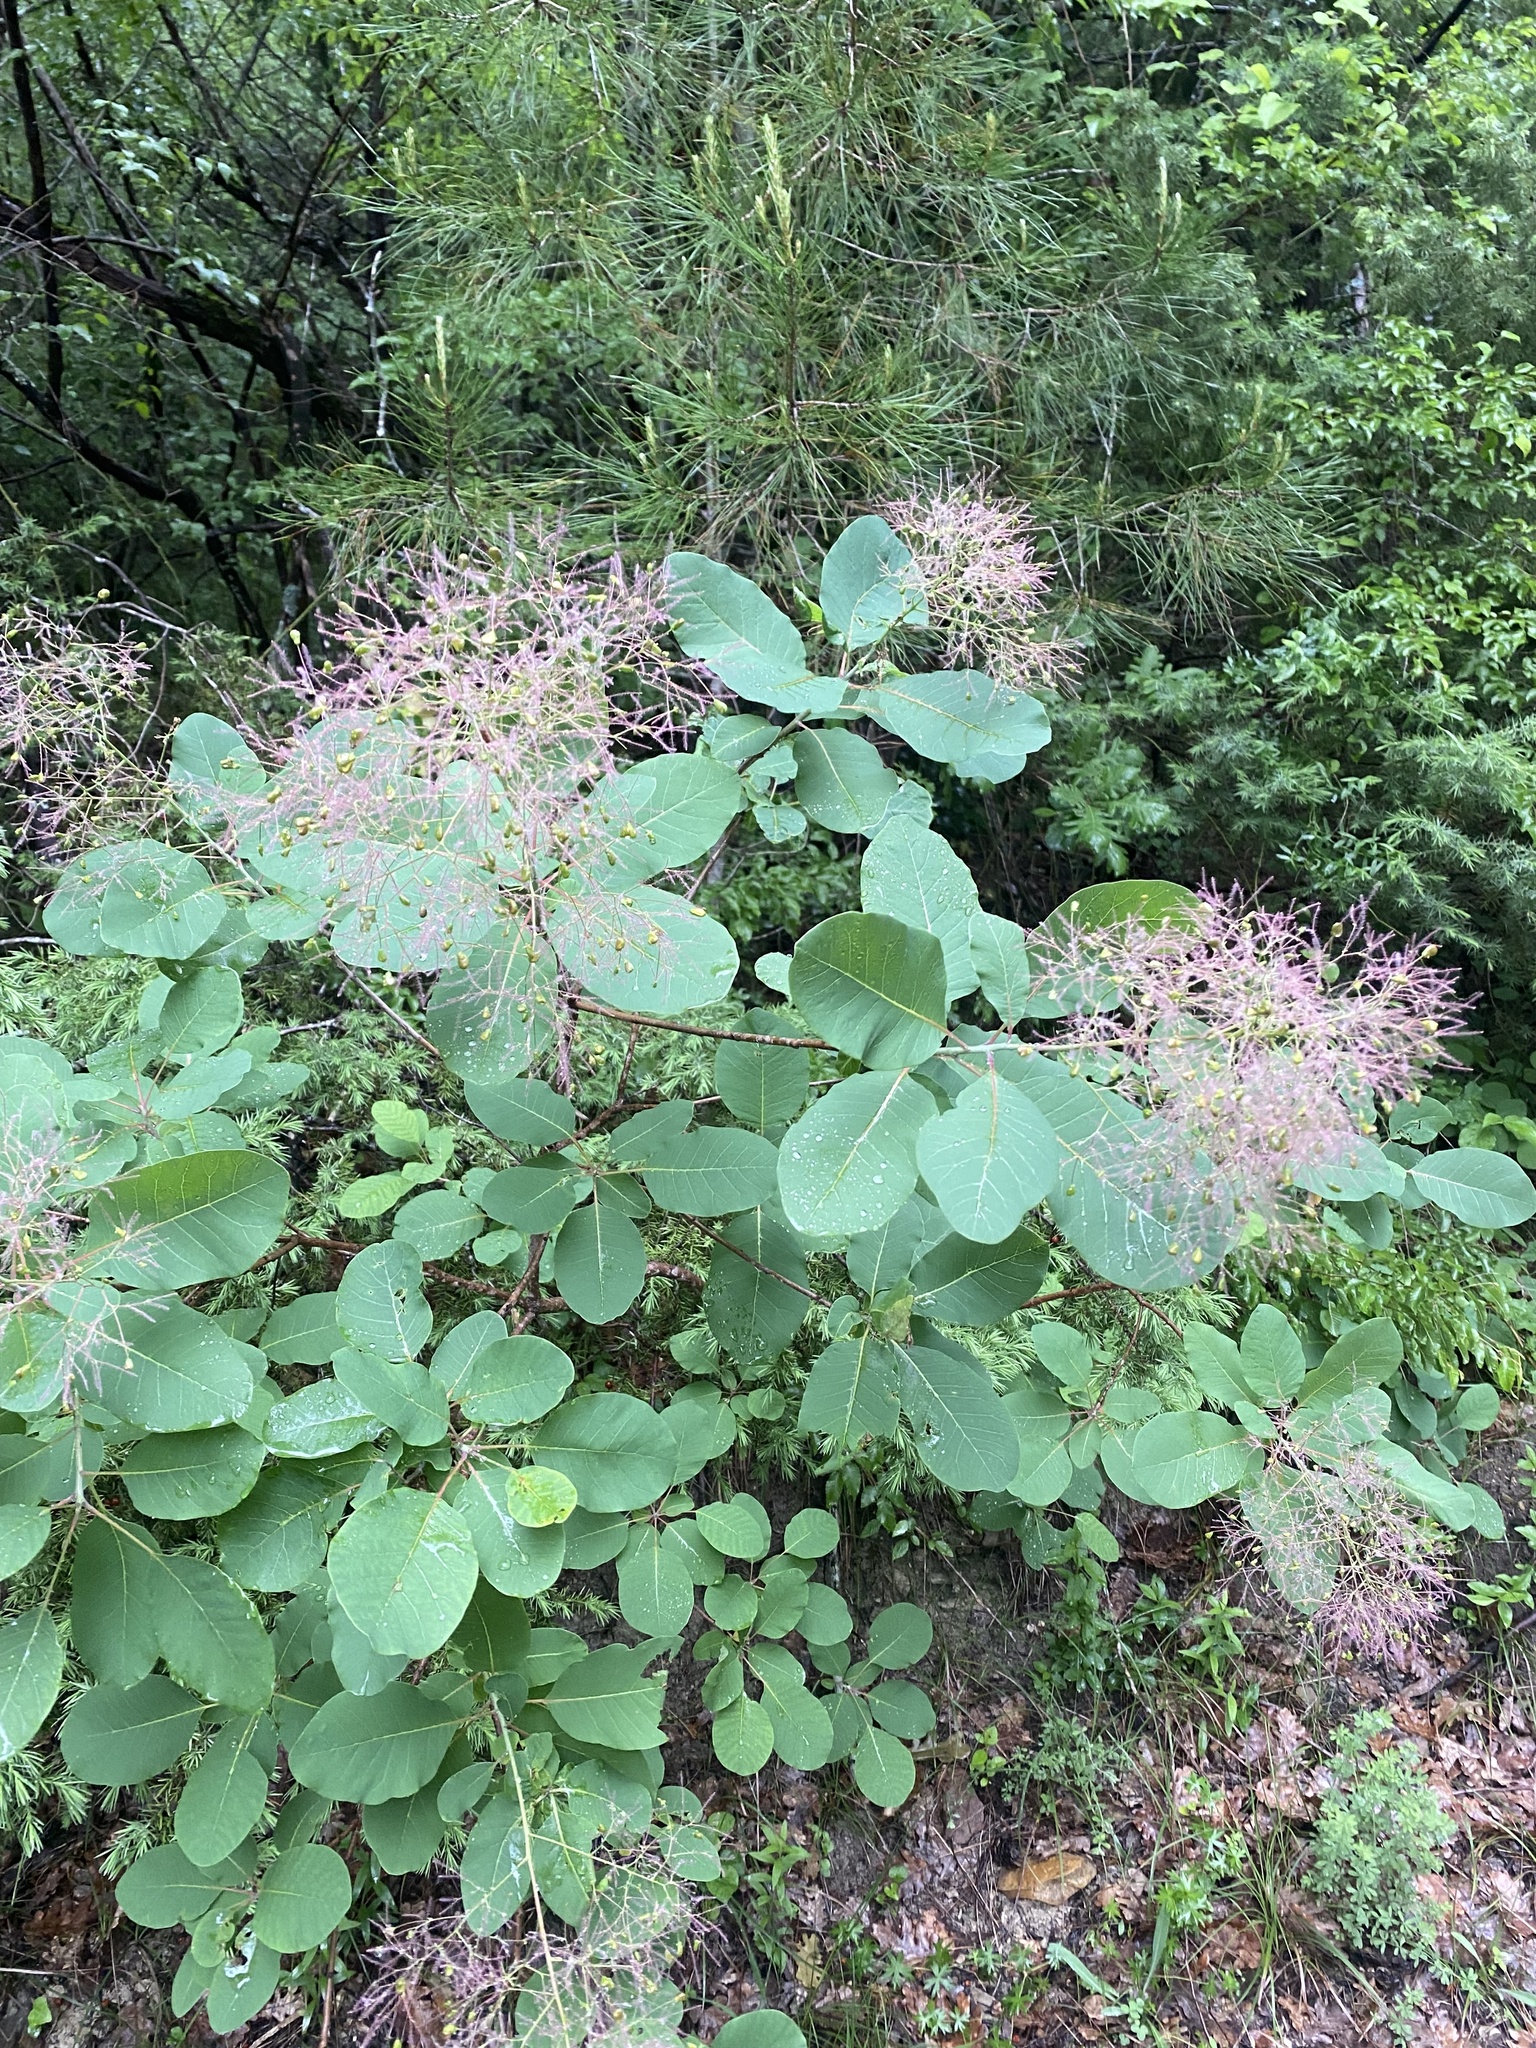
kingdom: Plantae
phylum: Tracheophyta
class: Magnoliopsida
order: Sapindales
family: Anacardiaceae
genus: Cotinus
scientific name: Cotinus coggygria
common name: Smoke-tree
